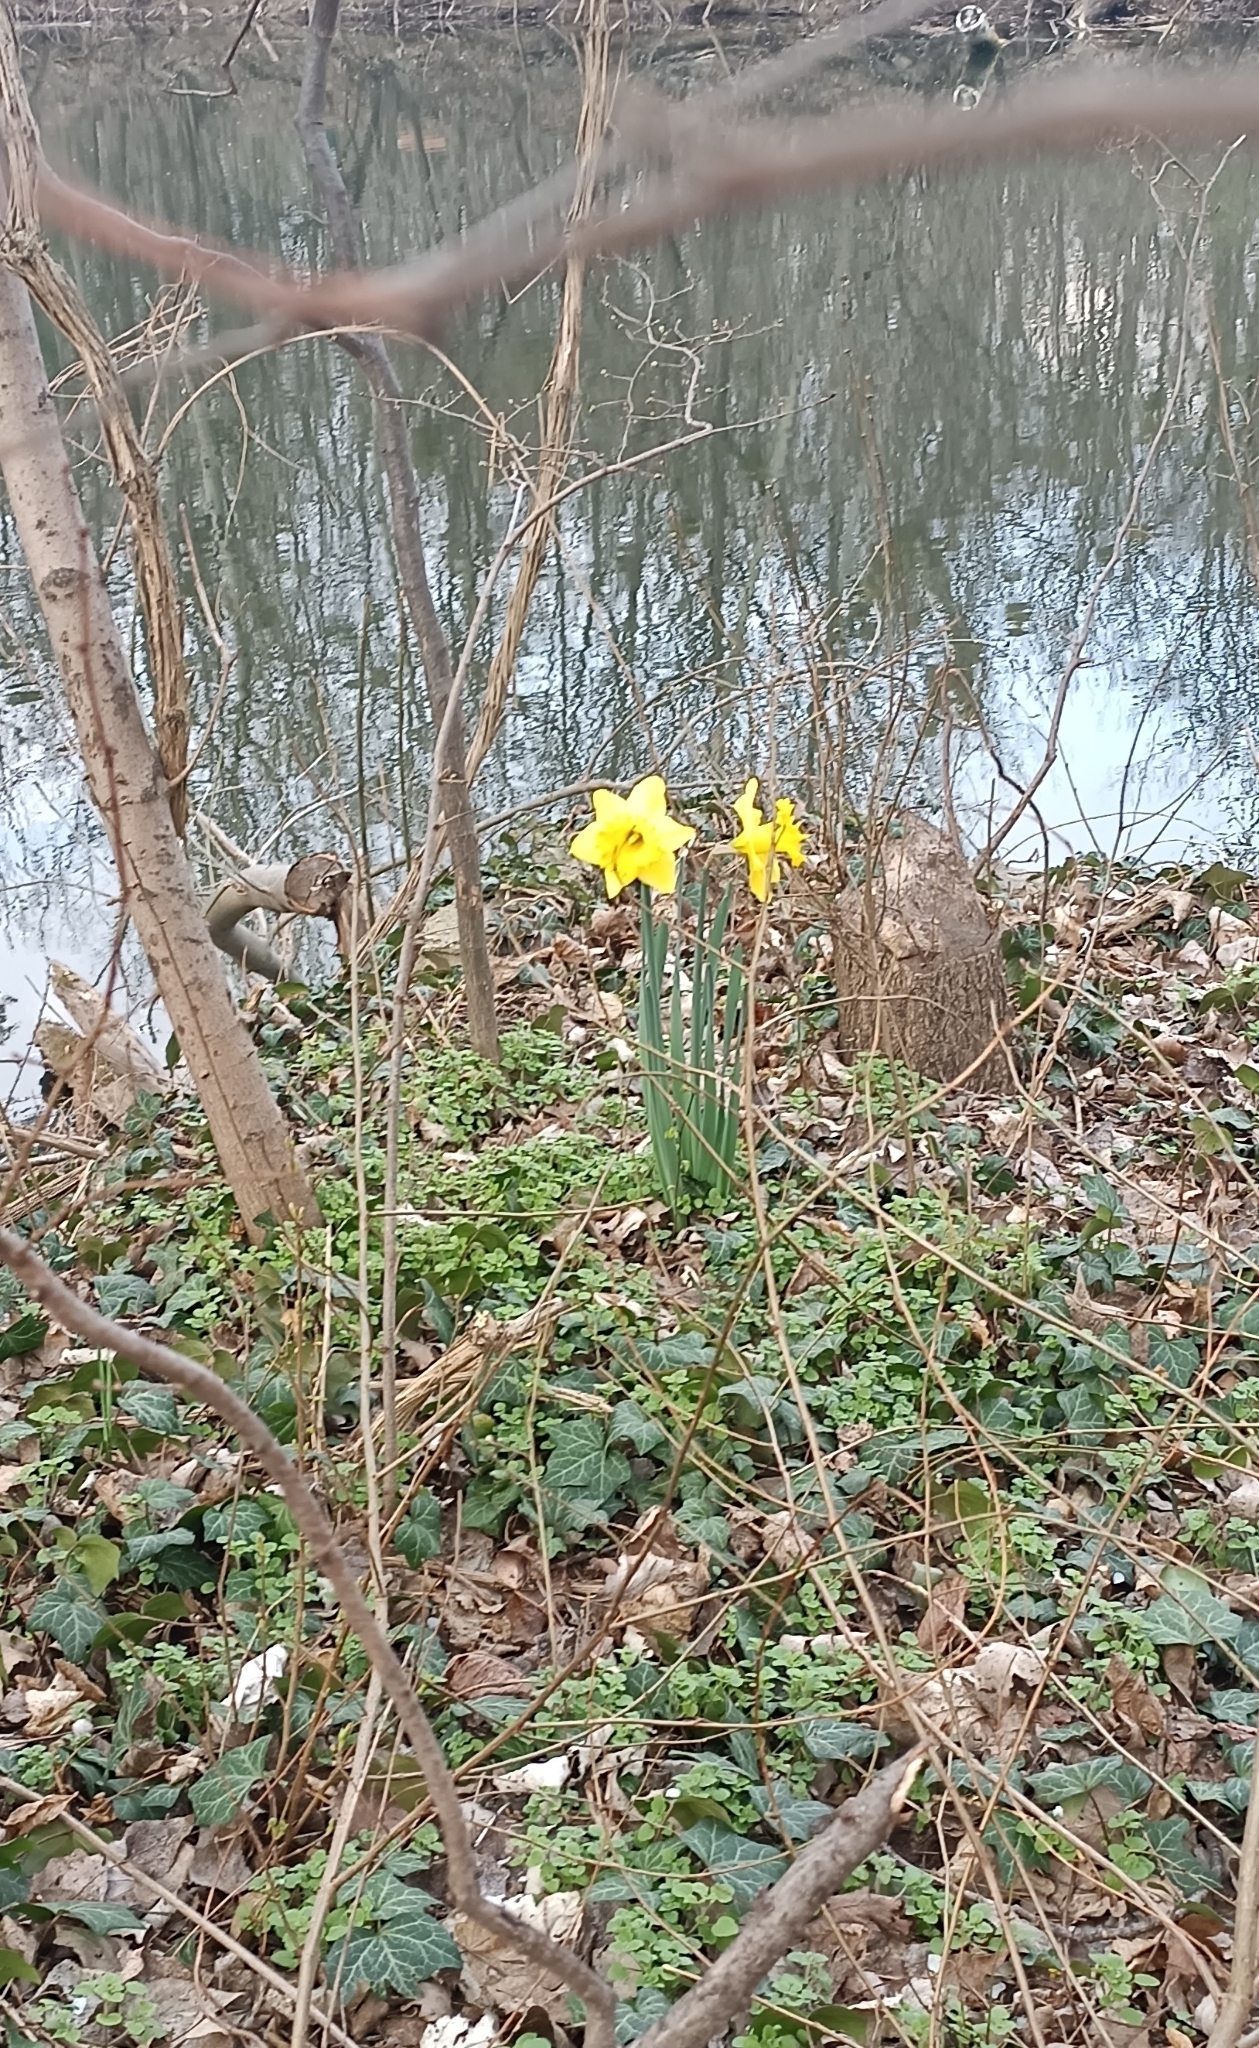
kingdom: Plantae
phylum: Tracheophyta
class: Liliopsida
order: Asparagales
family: Amaryllidaceae
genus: Narcissus
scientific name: Narcissus pseudonarcissus
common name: Daffodil
